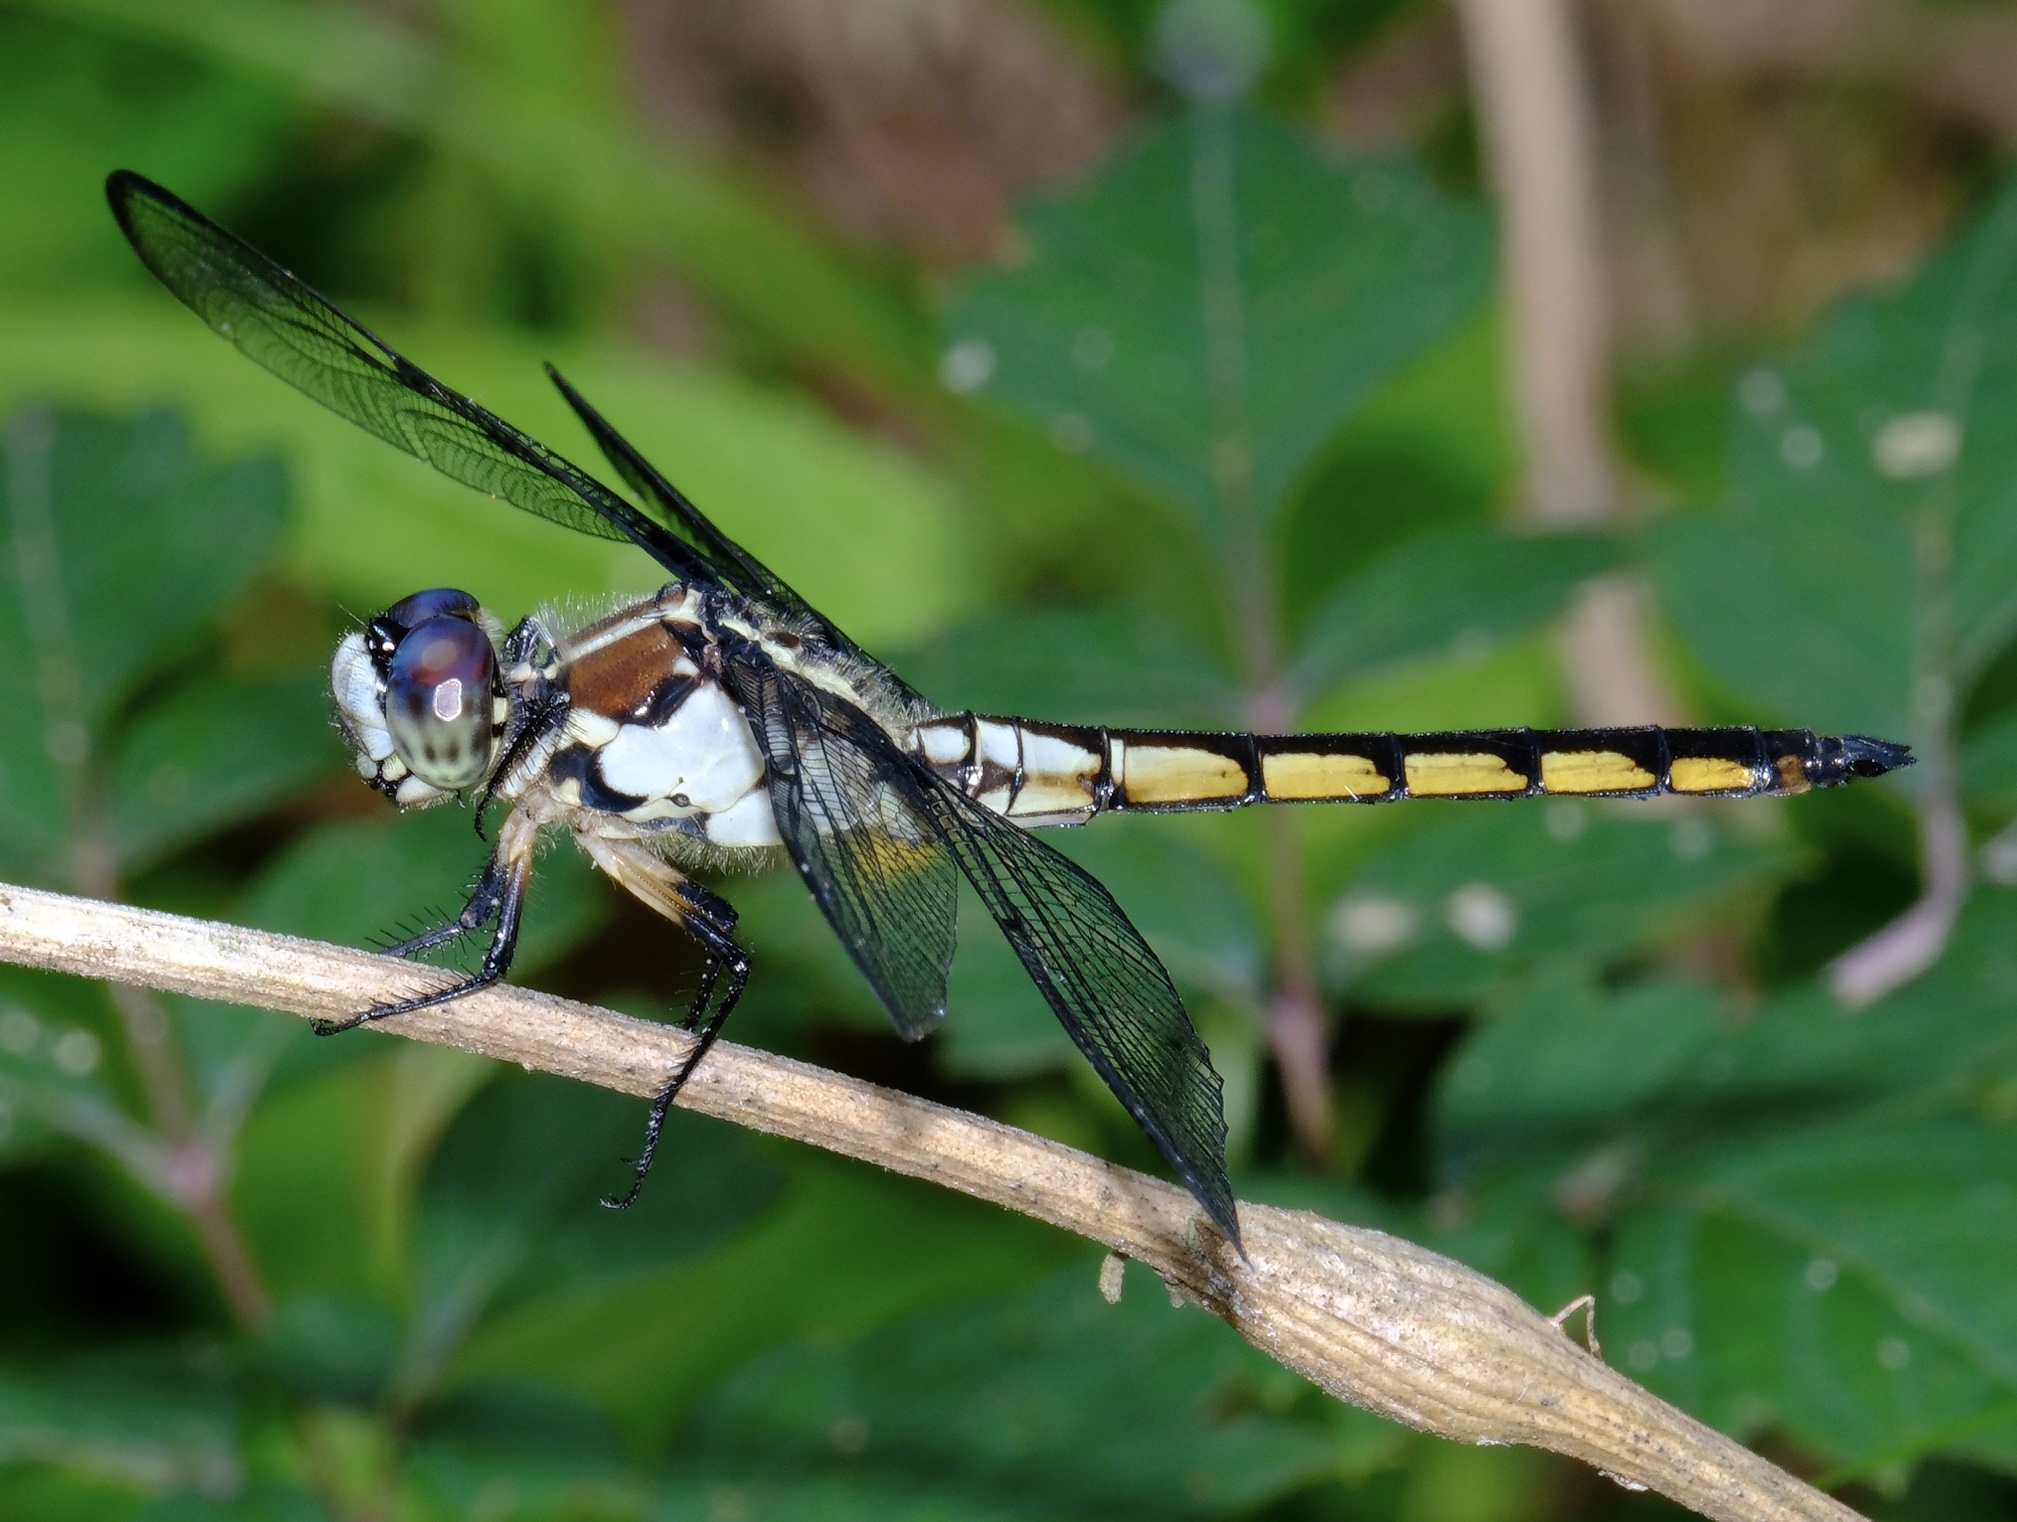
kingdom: Animalia
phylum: Arthropoda
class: Insecta
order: Odonata
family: Libellulidae
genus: Libellula
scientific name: Libellula vibrans
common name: Great blue skimmer
